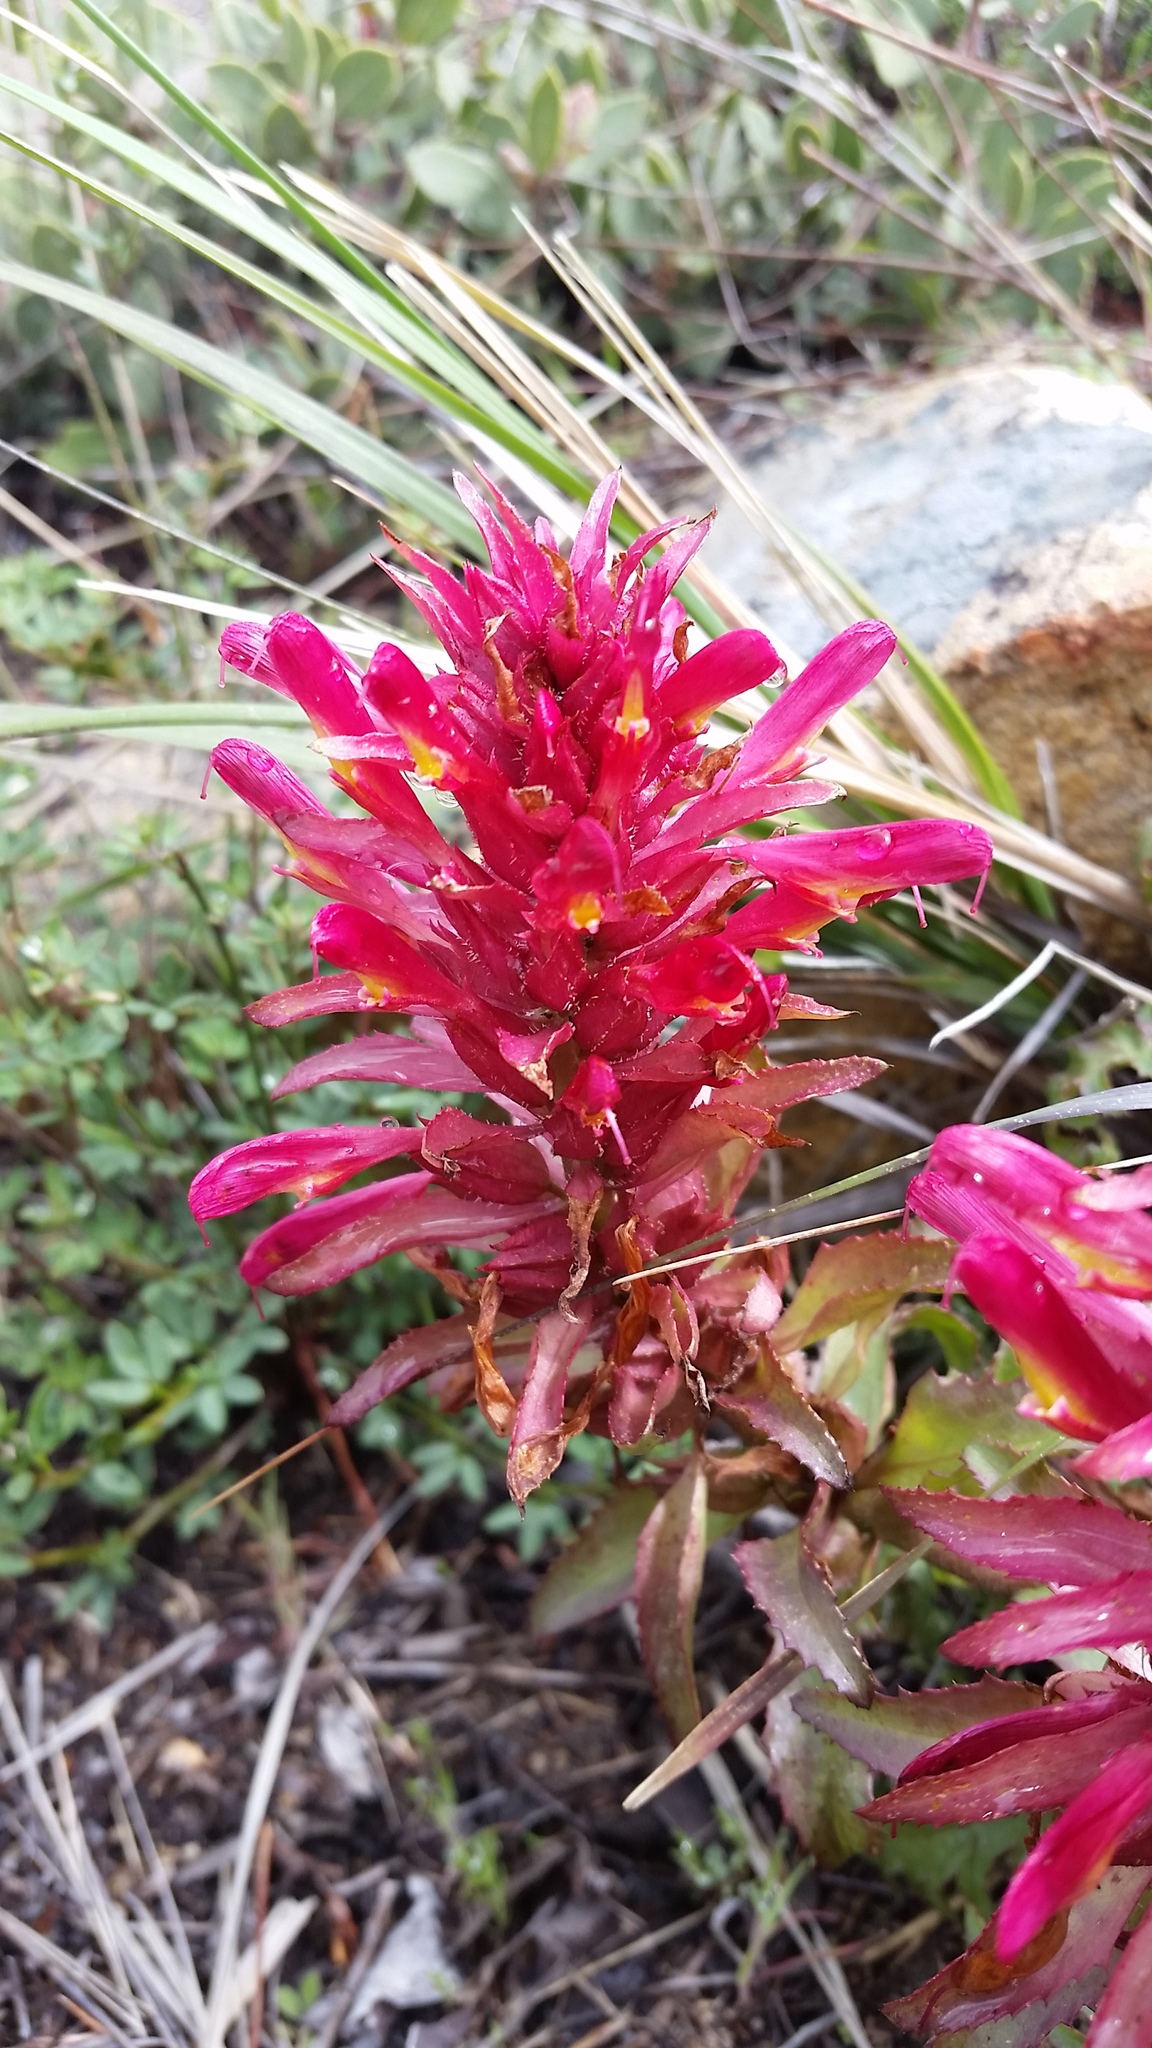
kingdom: Plantae
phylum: Tracheophyta
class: Magnoliopsida
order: Lamiales
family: Orobanchaceae
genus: Pedicularis
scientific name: Pedicularis densiflora
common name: Indian warrior
